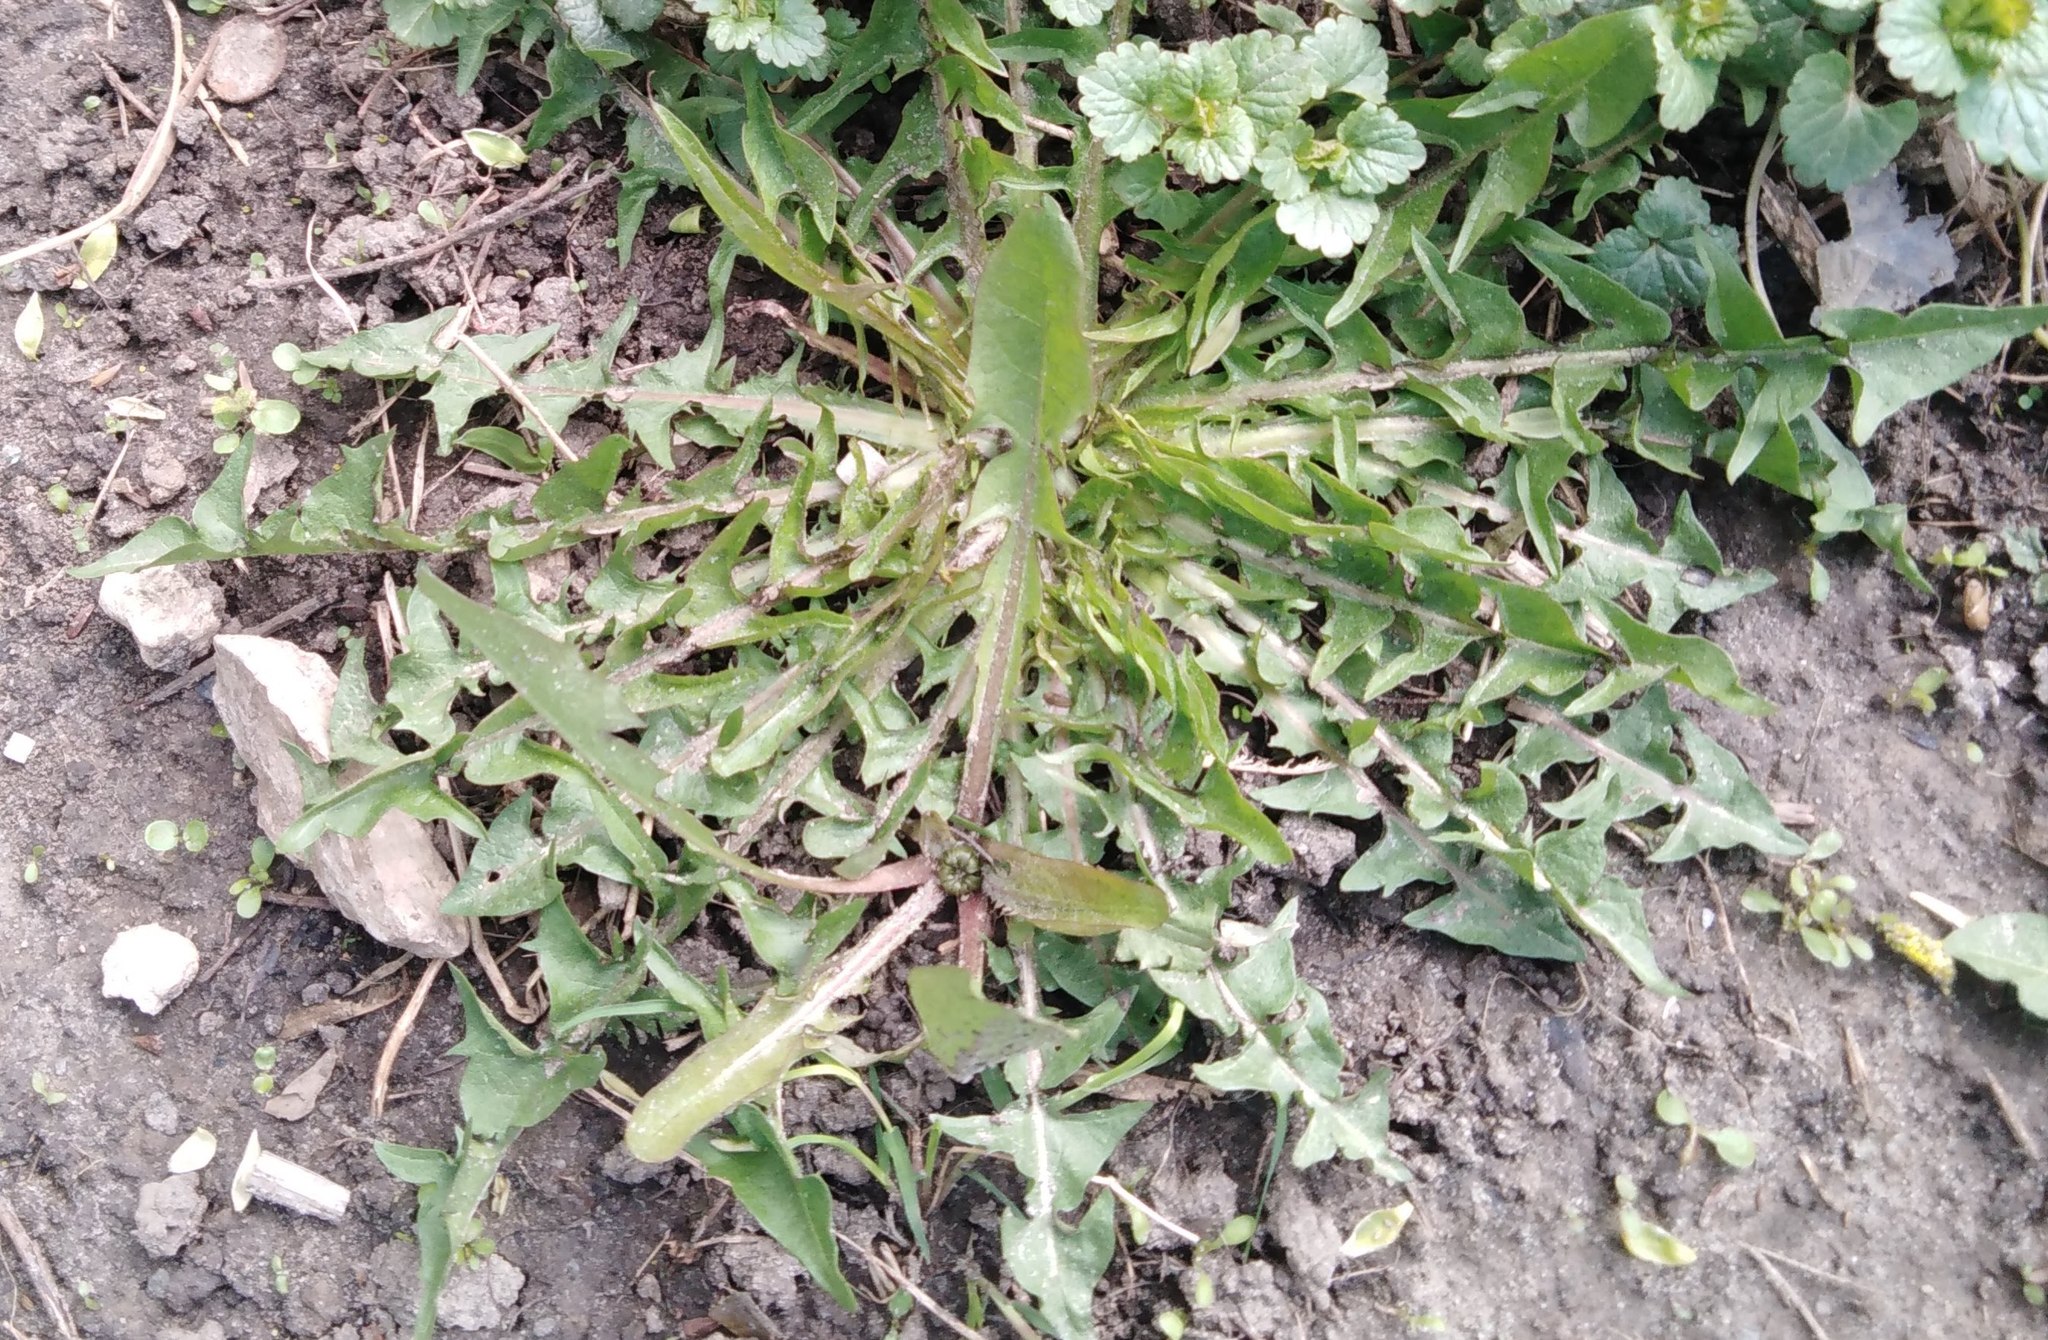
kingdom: Plantae
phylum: Tracheophyta
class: Magnoliopsida
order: Asterales
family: Asteraceae
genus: Taraxacum
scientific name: Taraxacum officinale
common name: Common dandelion
